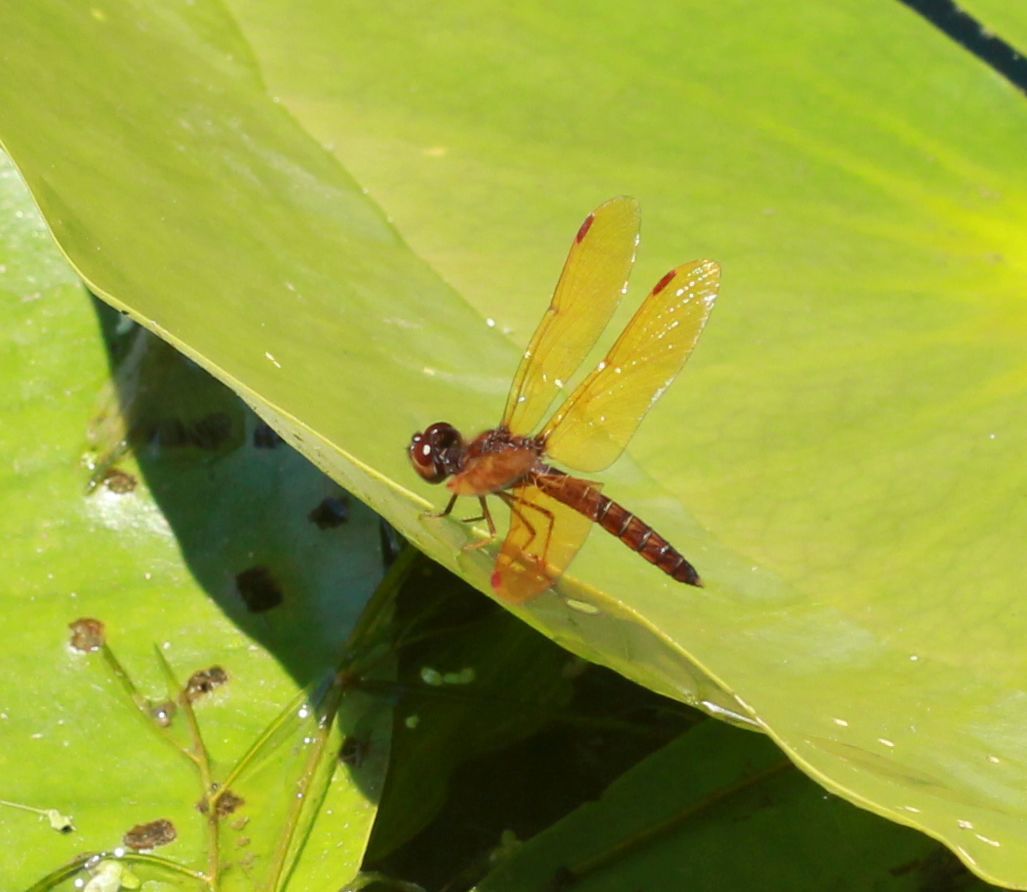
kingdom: Animalia
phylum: Arthropoda
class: Insecta
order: Odonata
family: Libellulidae
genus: Perithemis
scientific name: Perithemis tenera
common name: Eastern amberwing
